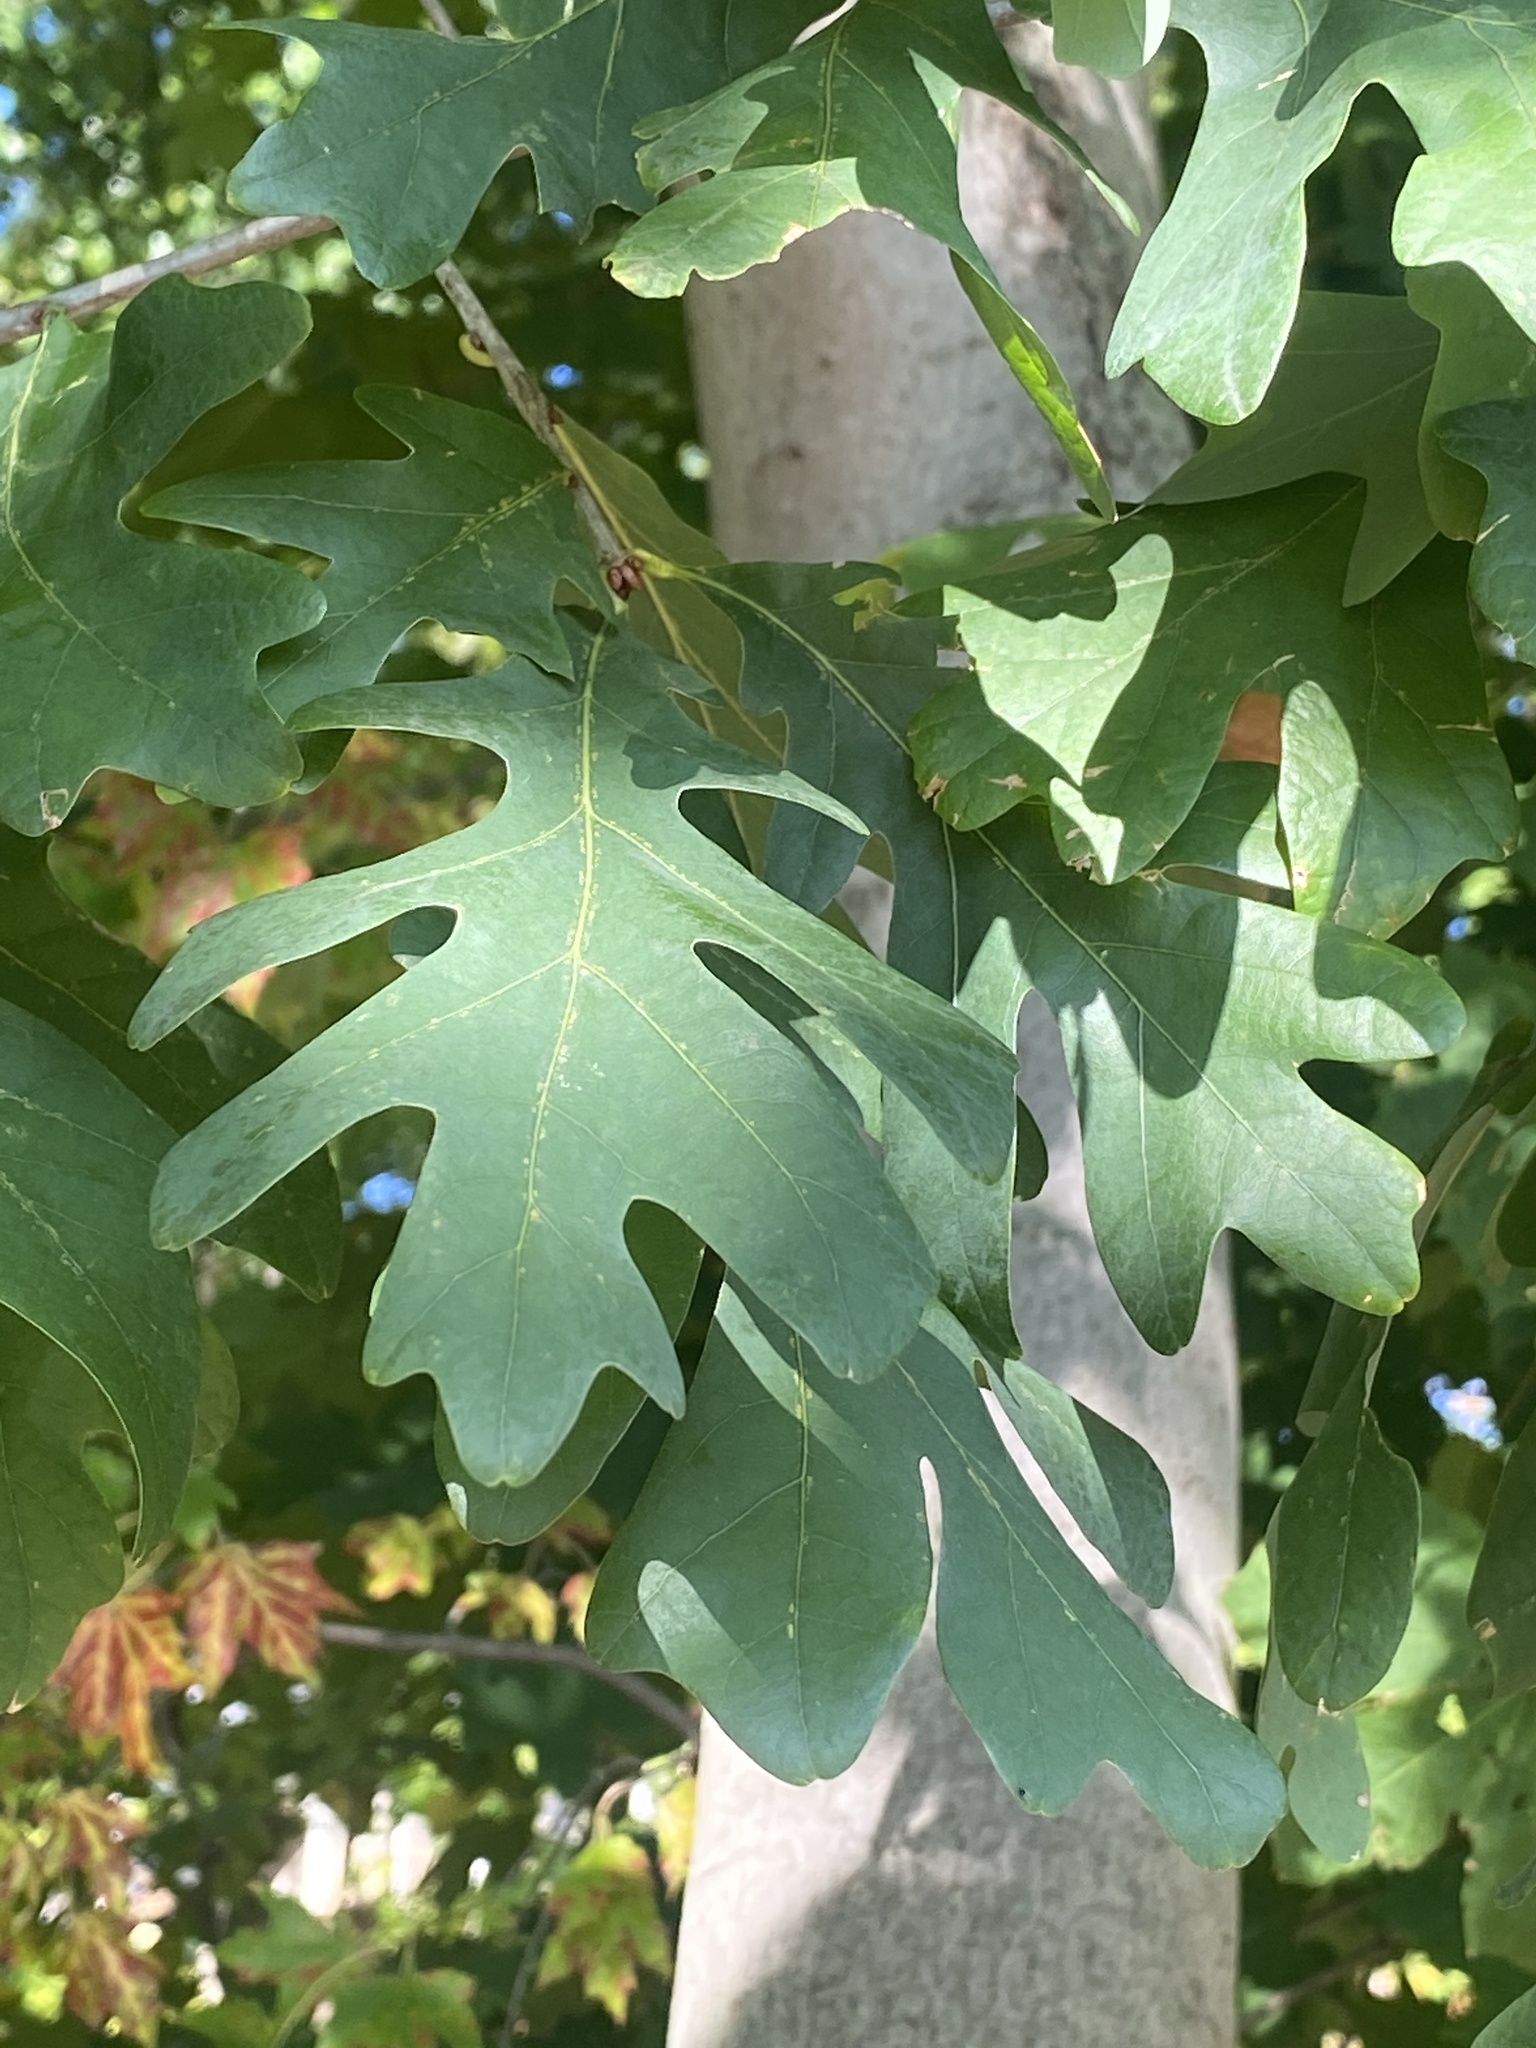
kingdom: Plantae
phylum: Tracheophyta
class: Magnoliopsida
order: Fagales
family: Fagaceae
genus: Quercus
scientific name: Quercus alba
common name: White oak
